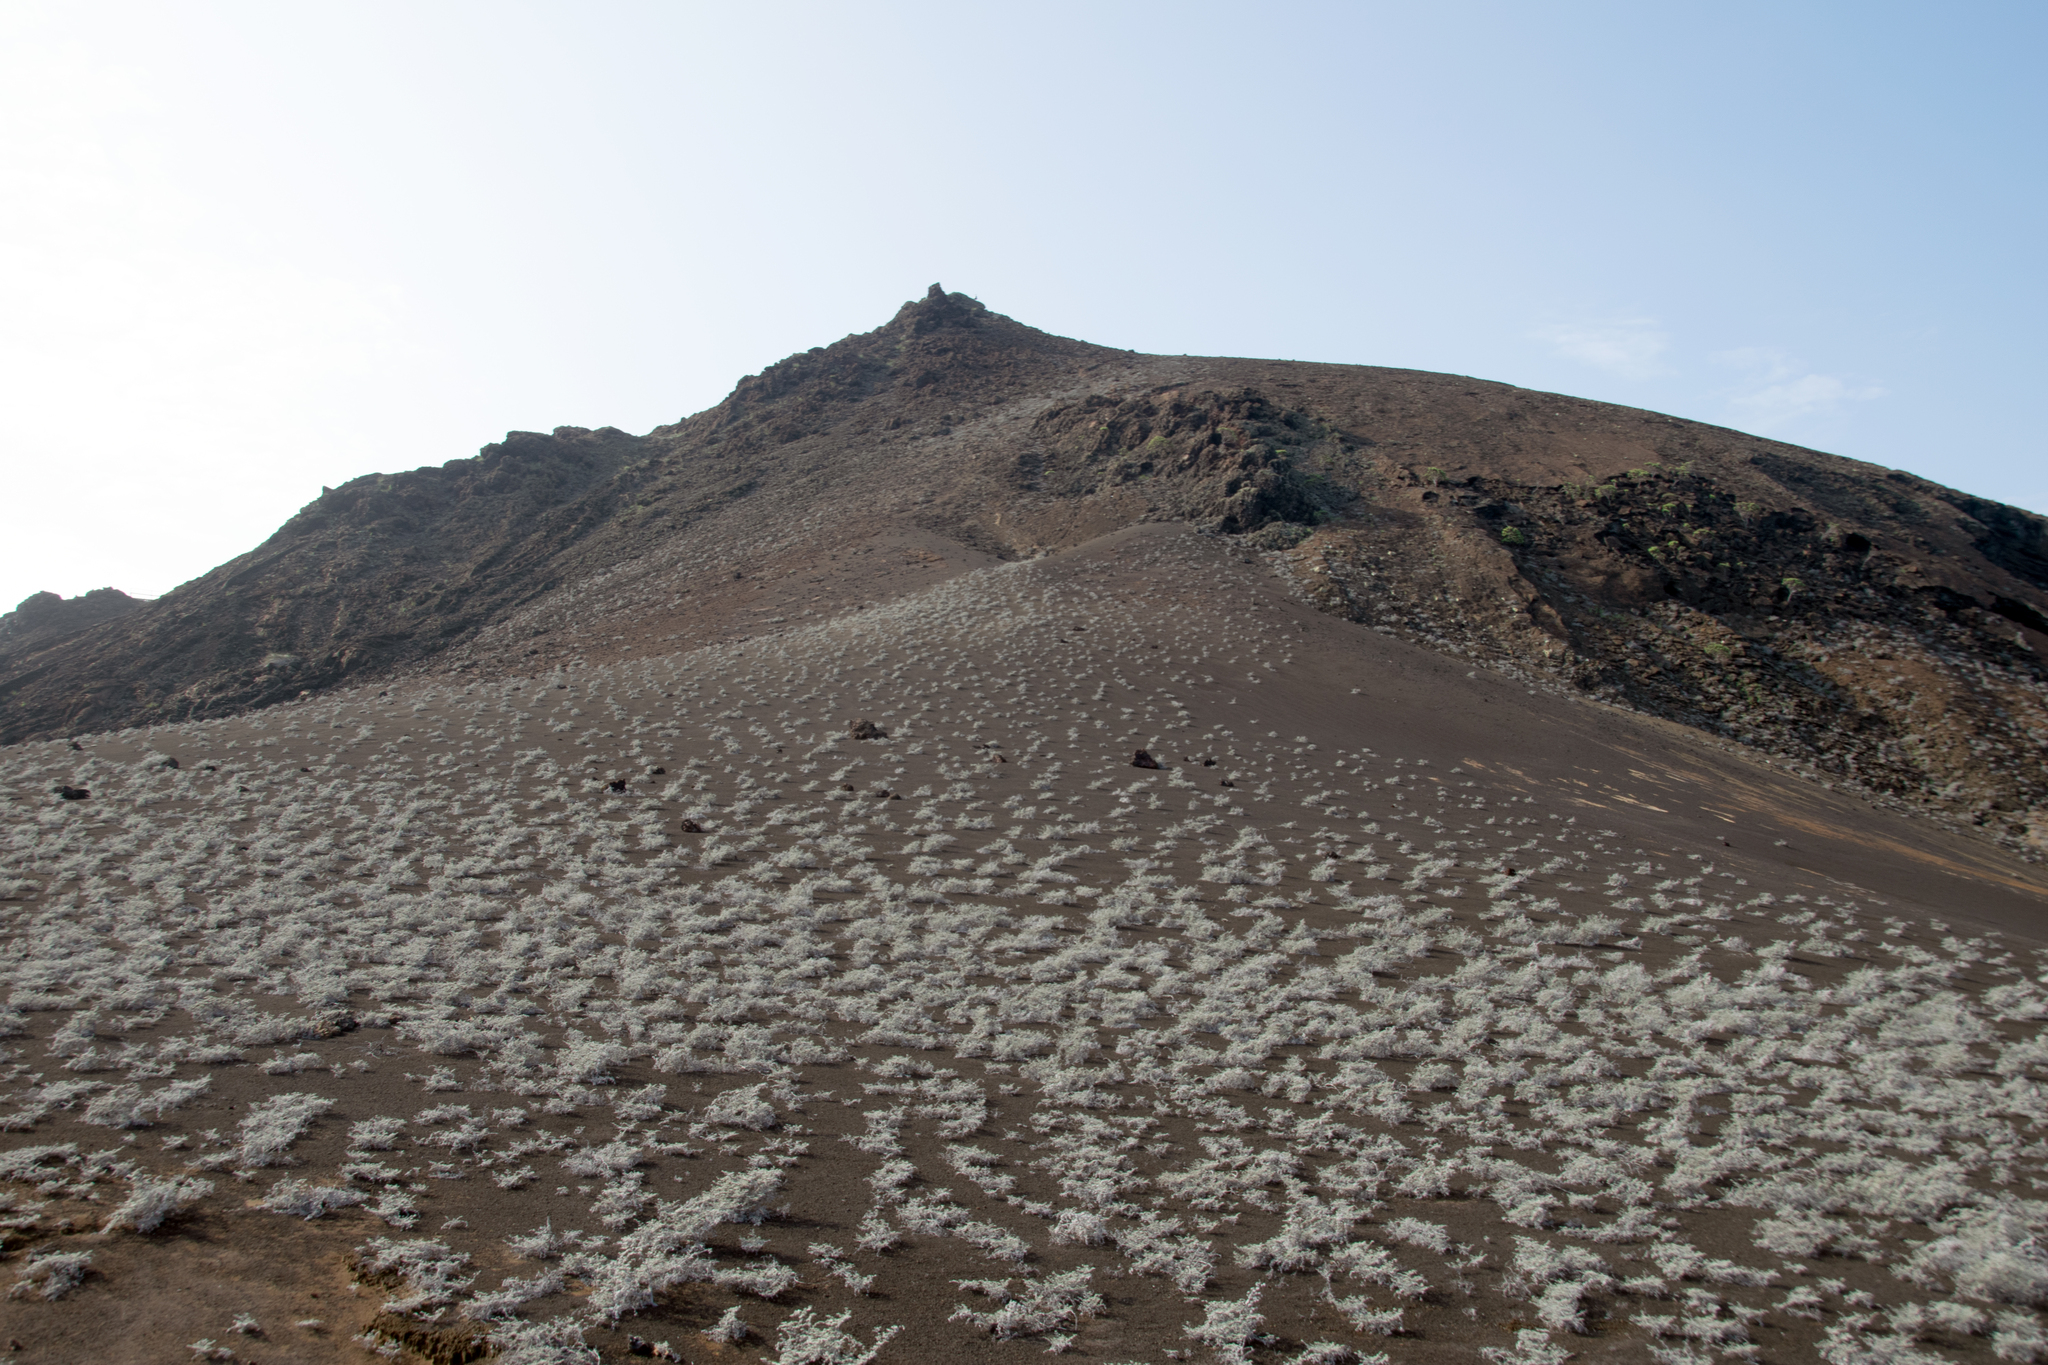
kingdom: Plantae
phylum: Tracheophyta
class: Magnoliopsida
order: Boraginales
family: Ehretiaceae
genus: Tiquilia
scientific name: Tiquilia nesiotica
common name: Gray matplant
